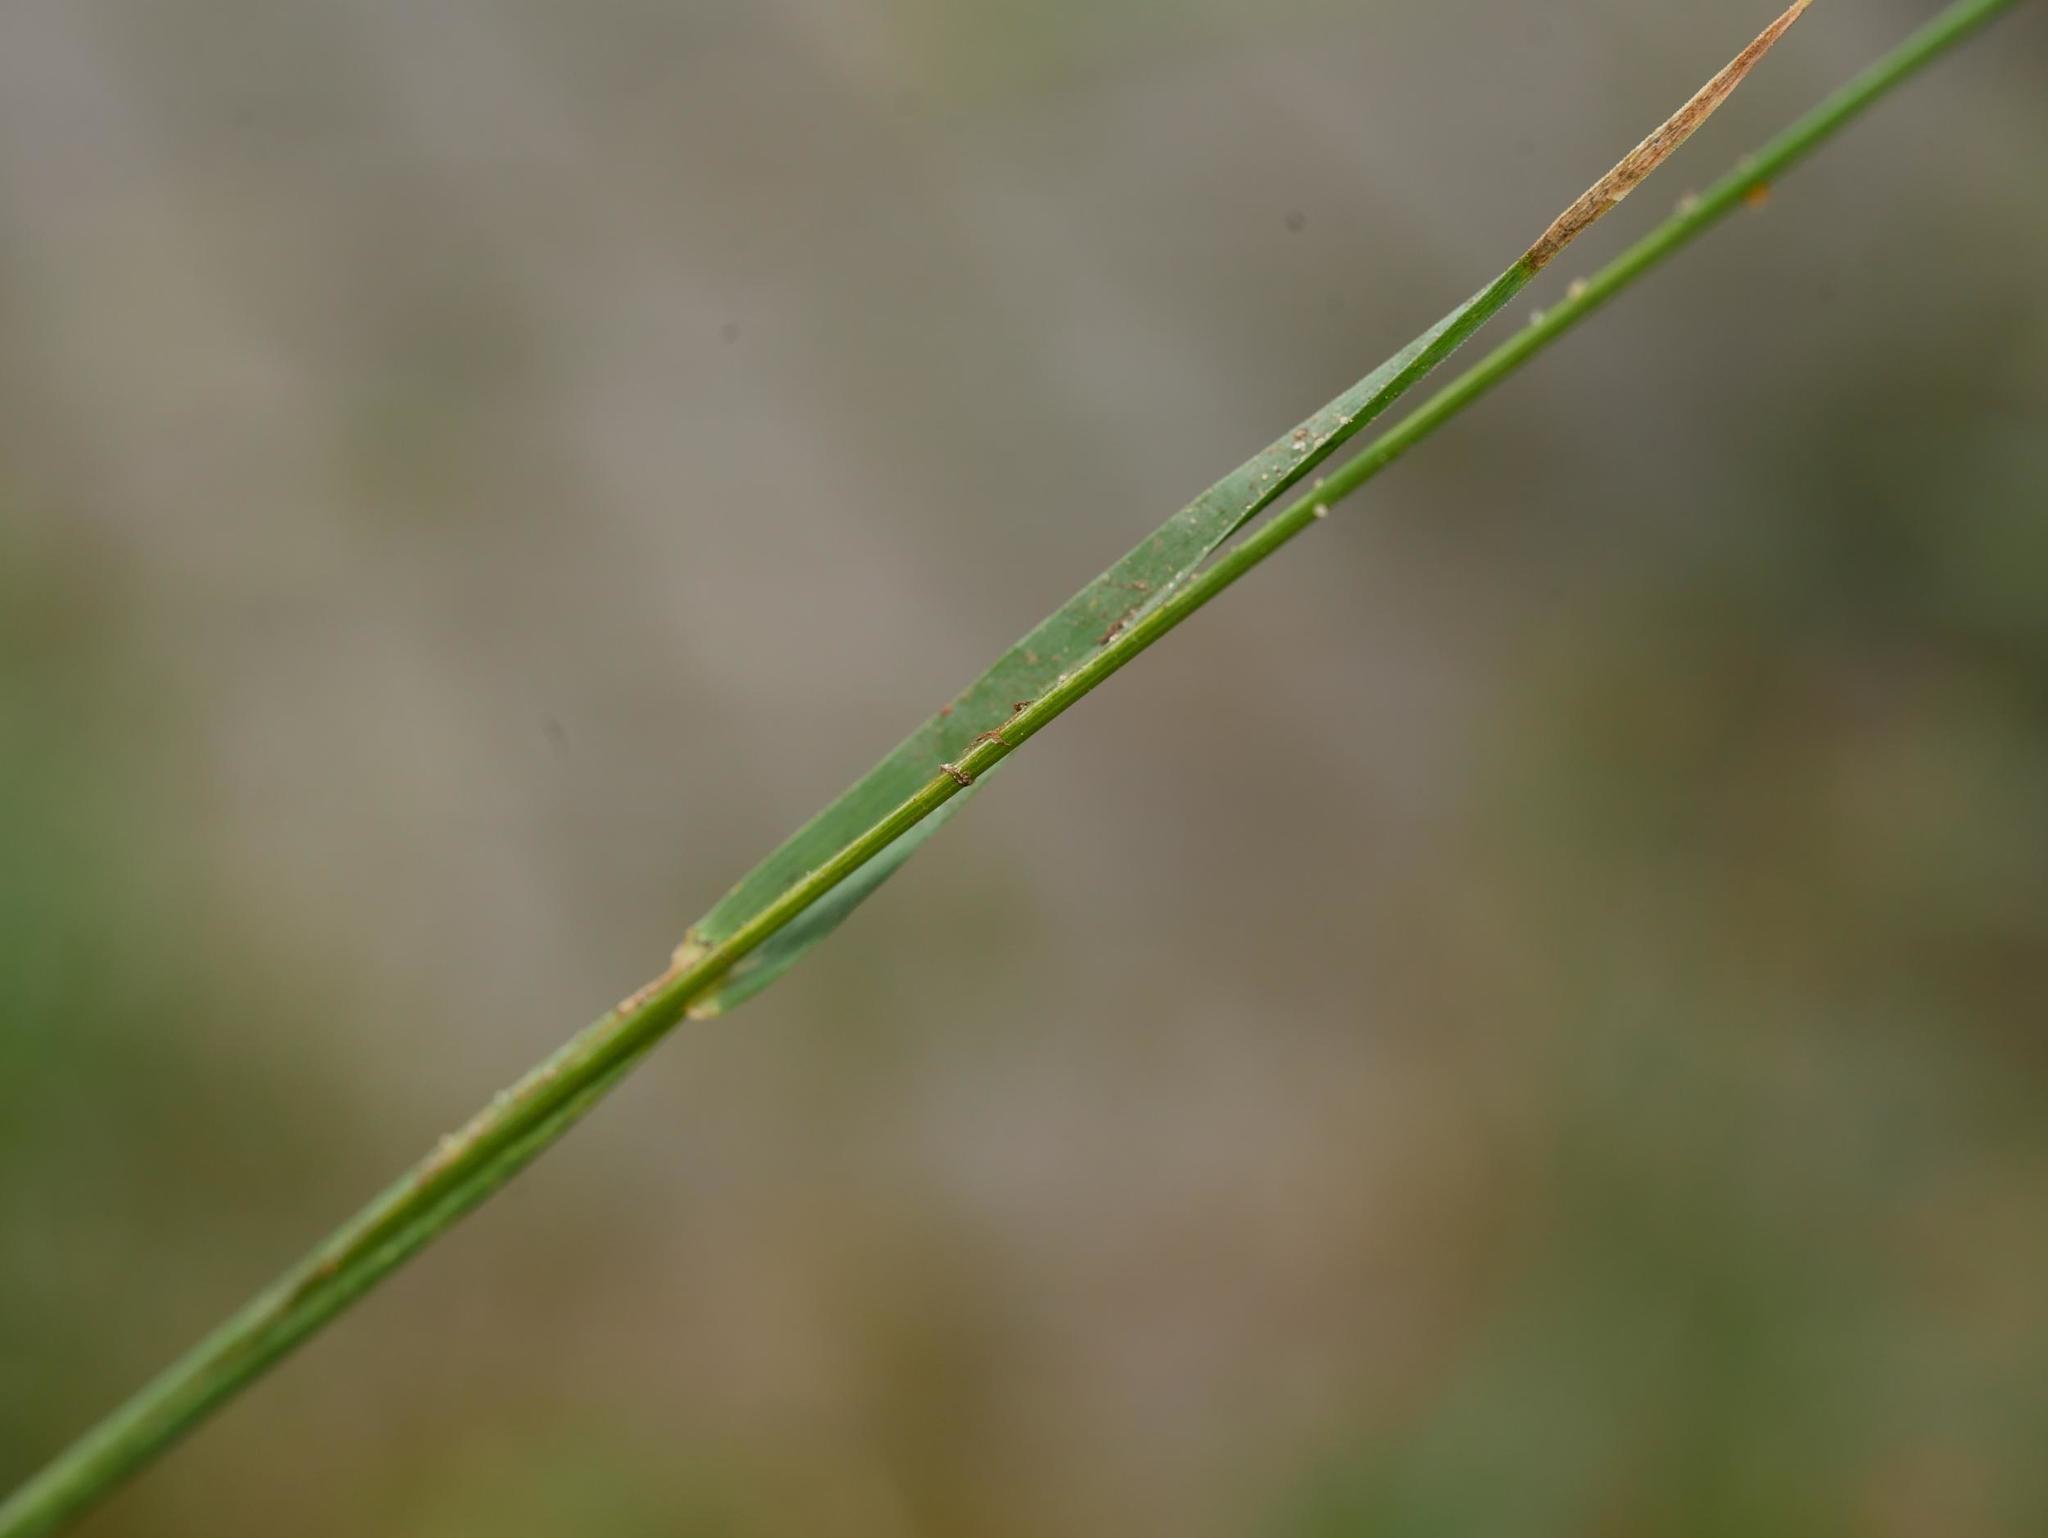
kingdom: Plantae
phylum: Tracheophyta
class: Liliopsida
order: Poales
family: Poaceae
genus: Dactylis
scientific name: Dactylis glomerata
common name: Orchardgrass
